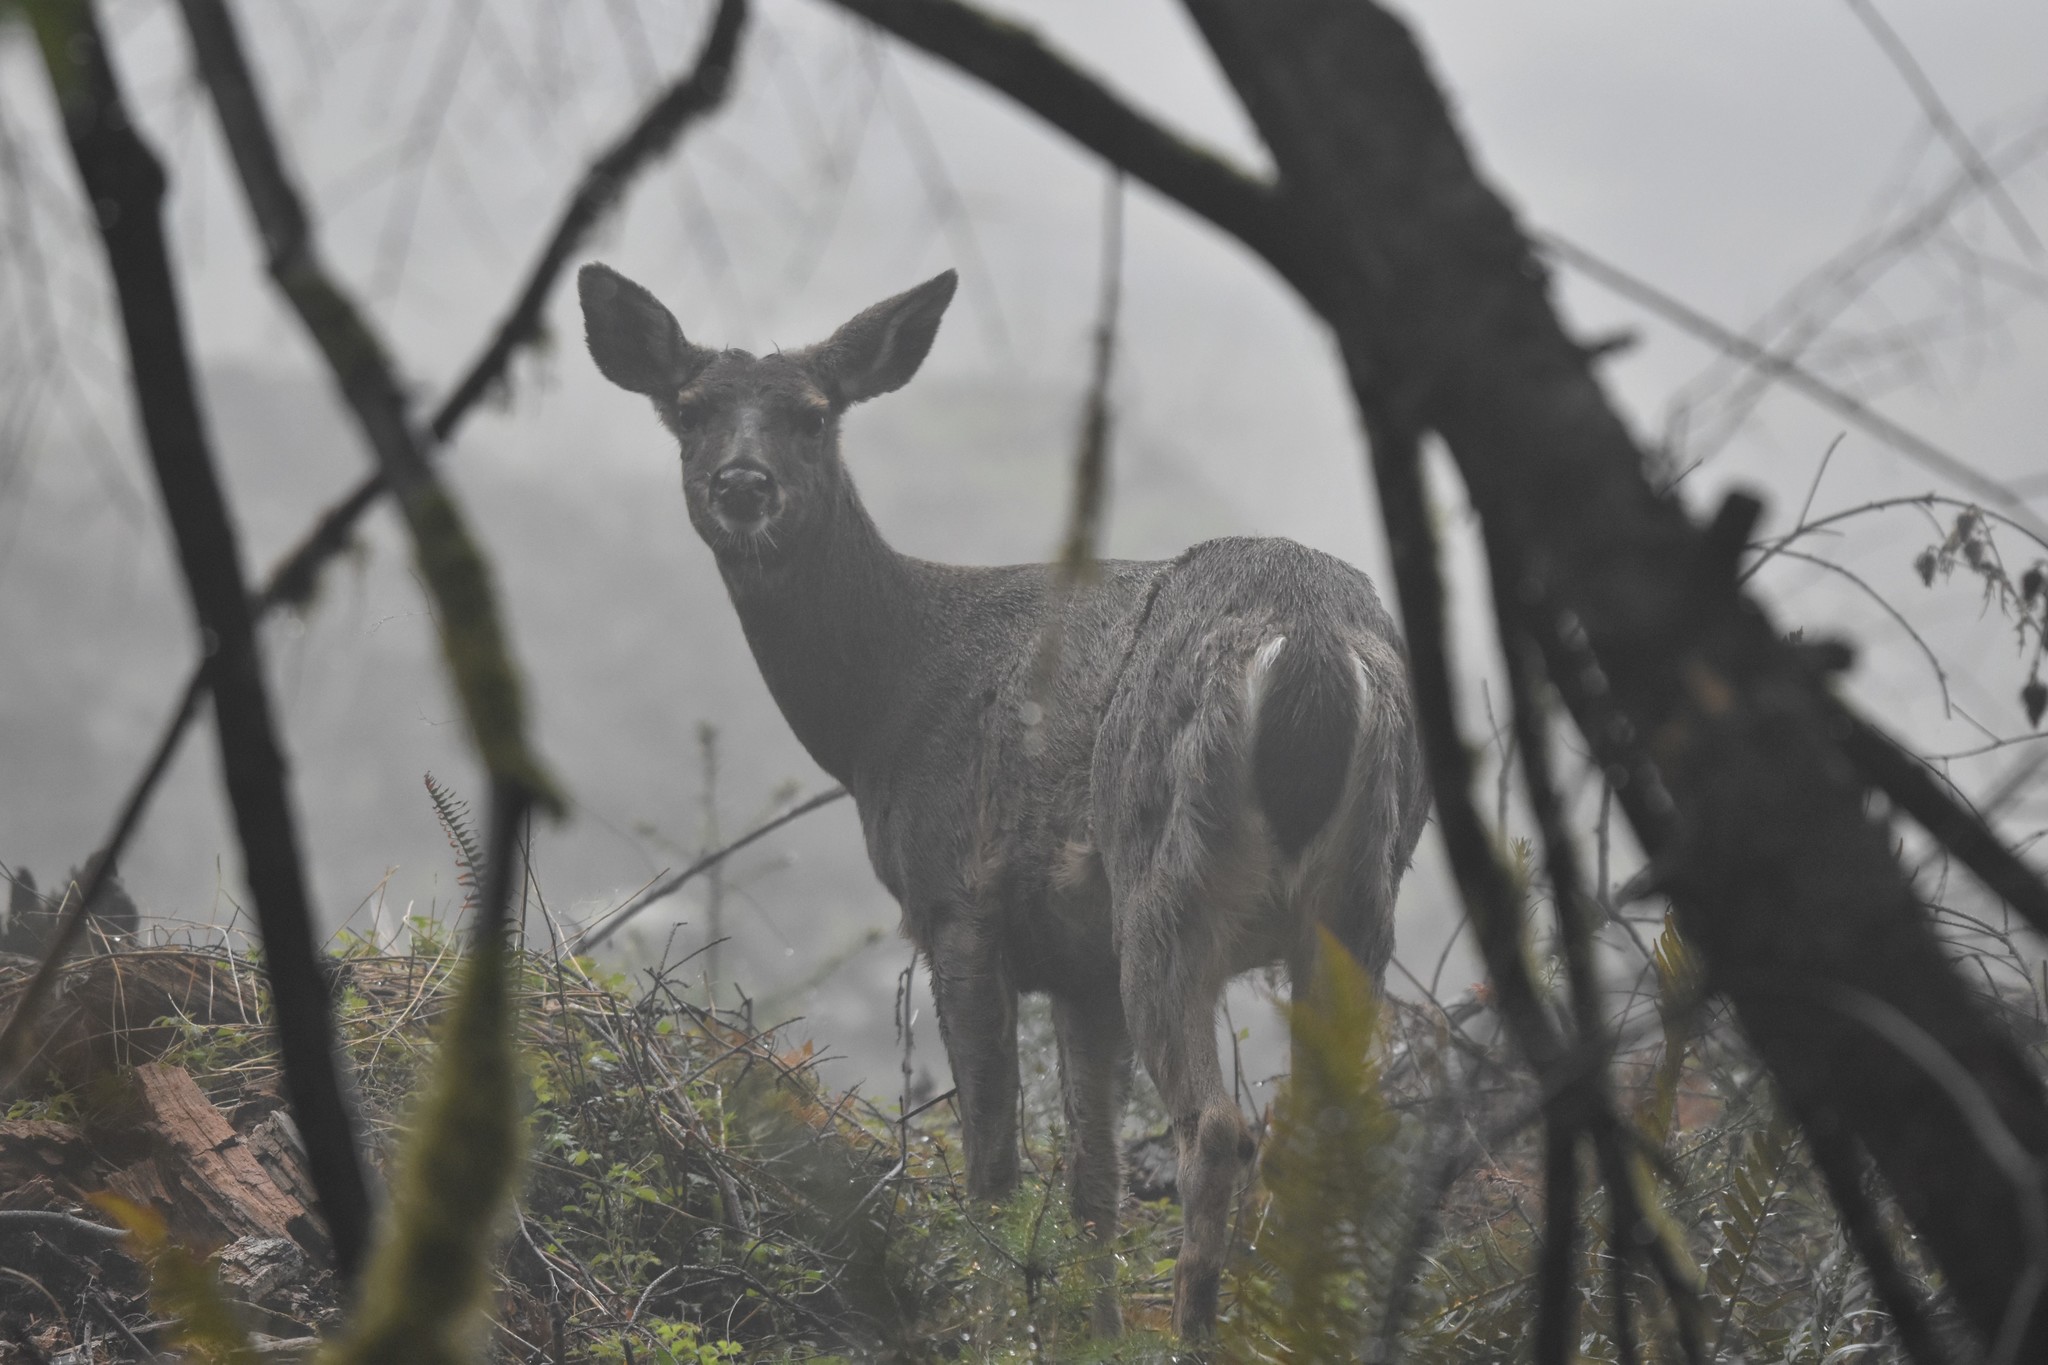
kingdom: Animalia
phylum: Chordata
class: Mammalia
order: Artiodactyla
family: Cervidae
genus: Odocoileus
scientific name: Odocoileus hemionus
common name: Mule deer
